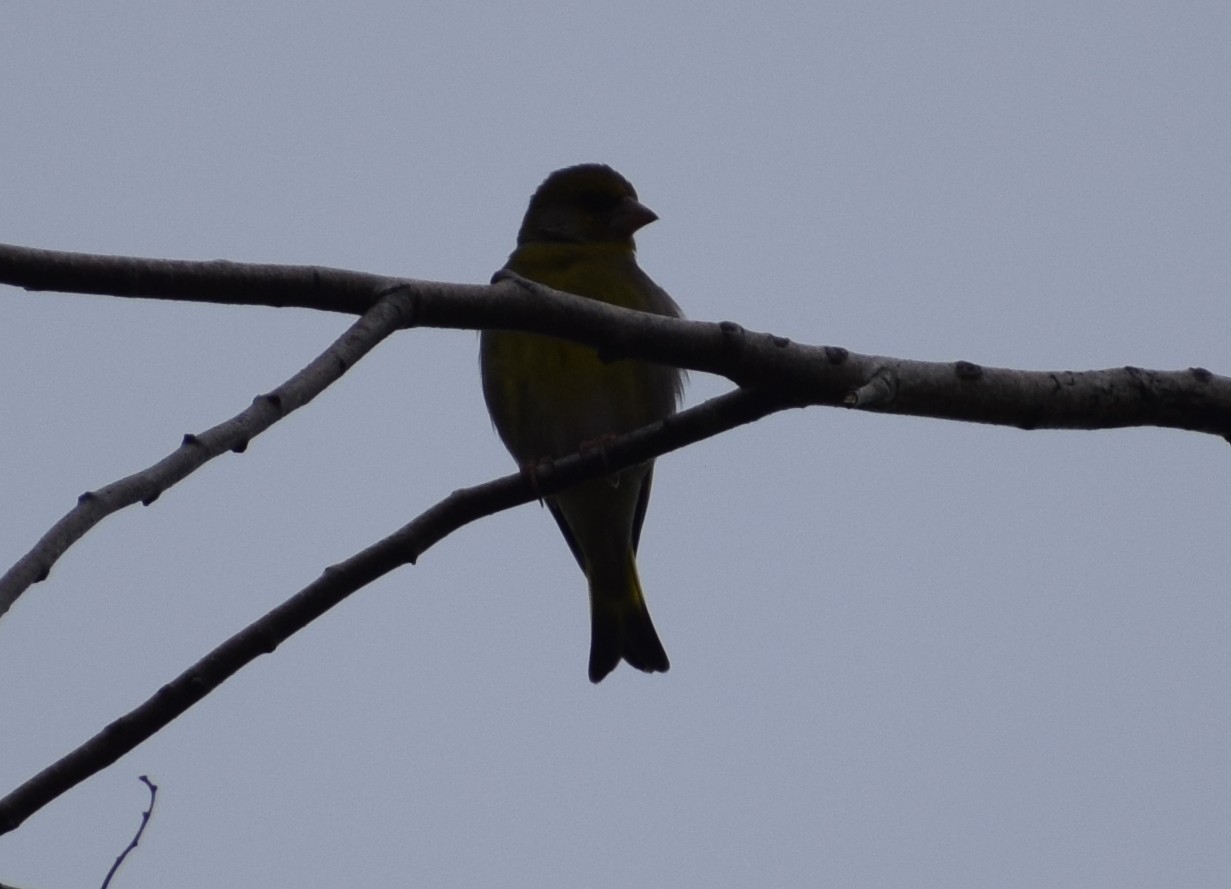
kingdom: Plantae
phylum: Tracheophyta
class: Liliopsida
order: Poales
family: Poaceae
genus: Chloris
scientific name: Chloris chloris
